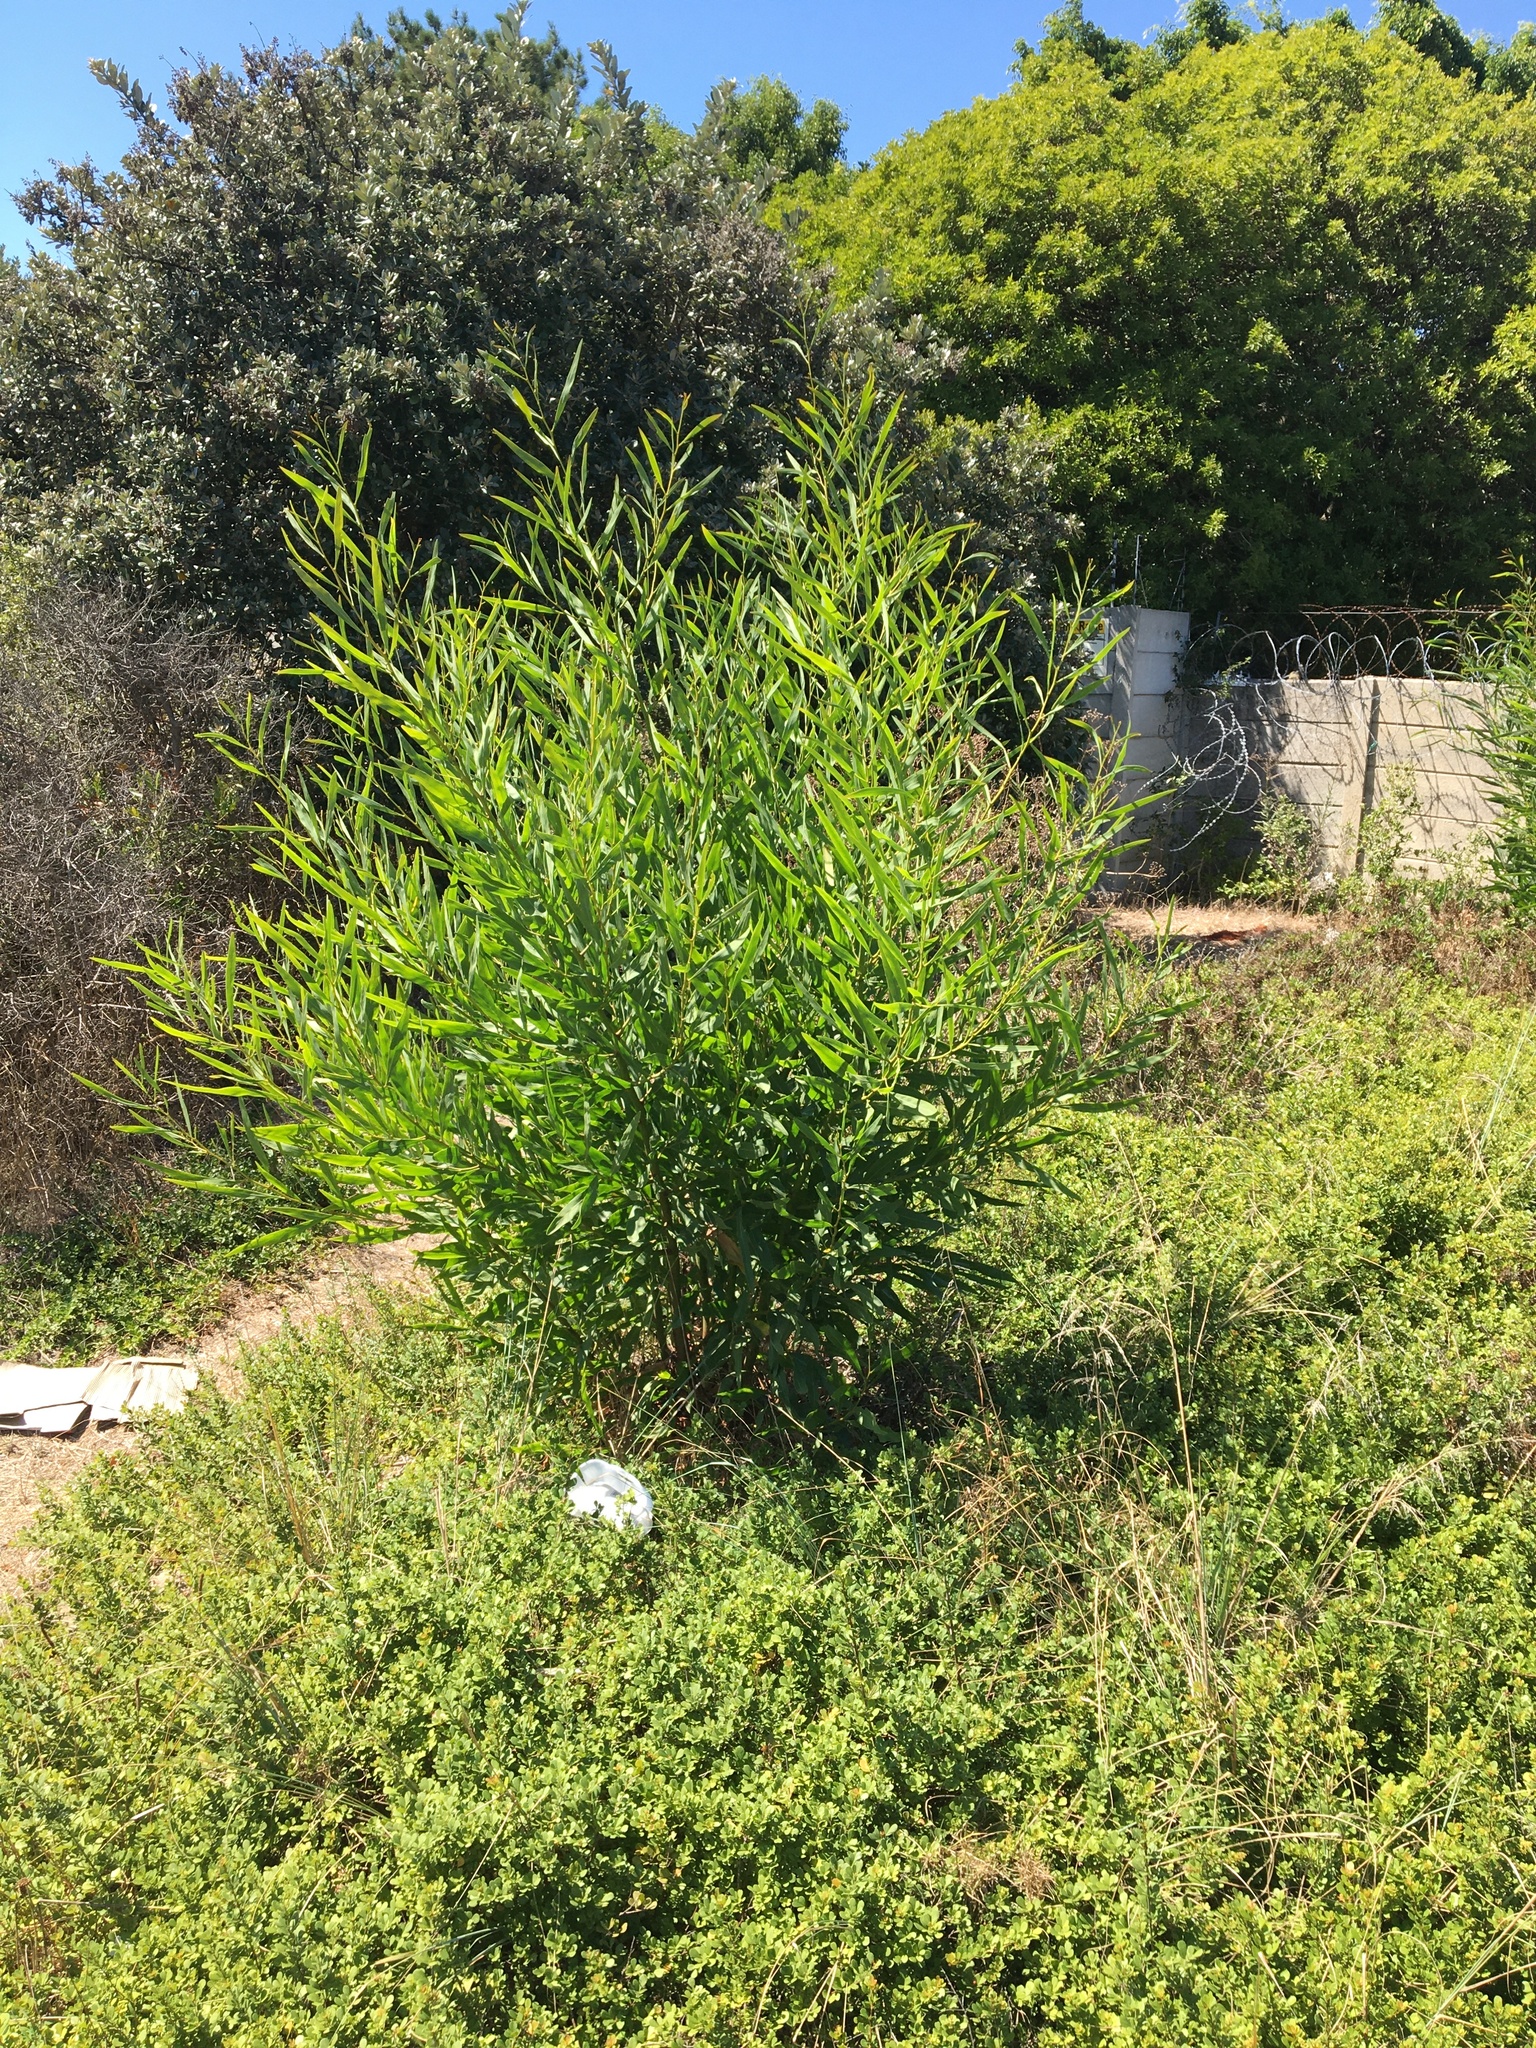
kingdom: Plantae
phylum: Tracheophyta
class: Magnoliopsida
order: Fabales
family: Fabaceae
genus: Acacia
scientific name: Acacia saligna
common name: Orange wattle
